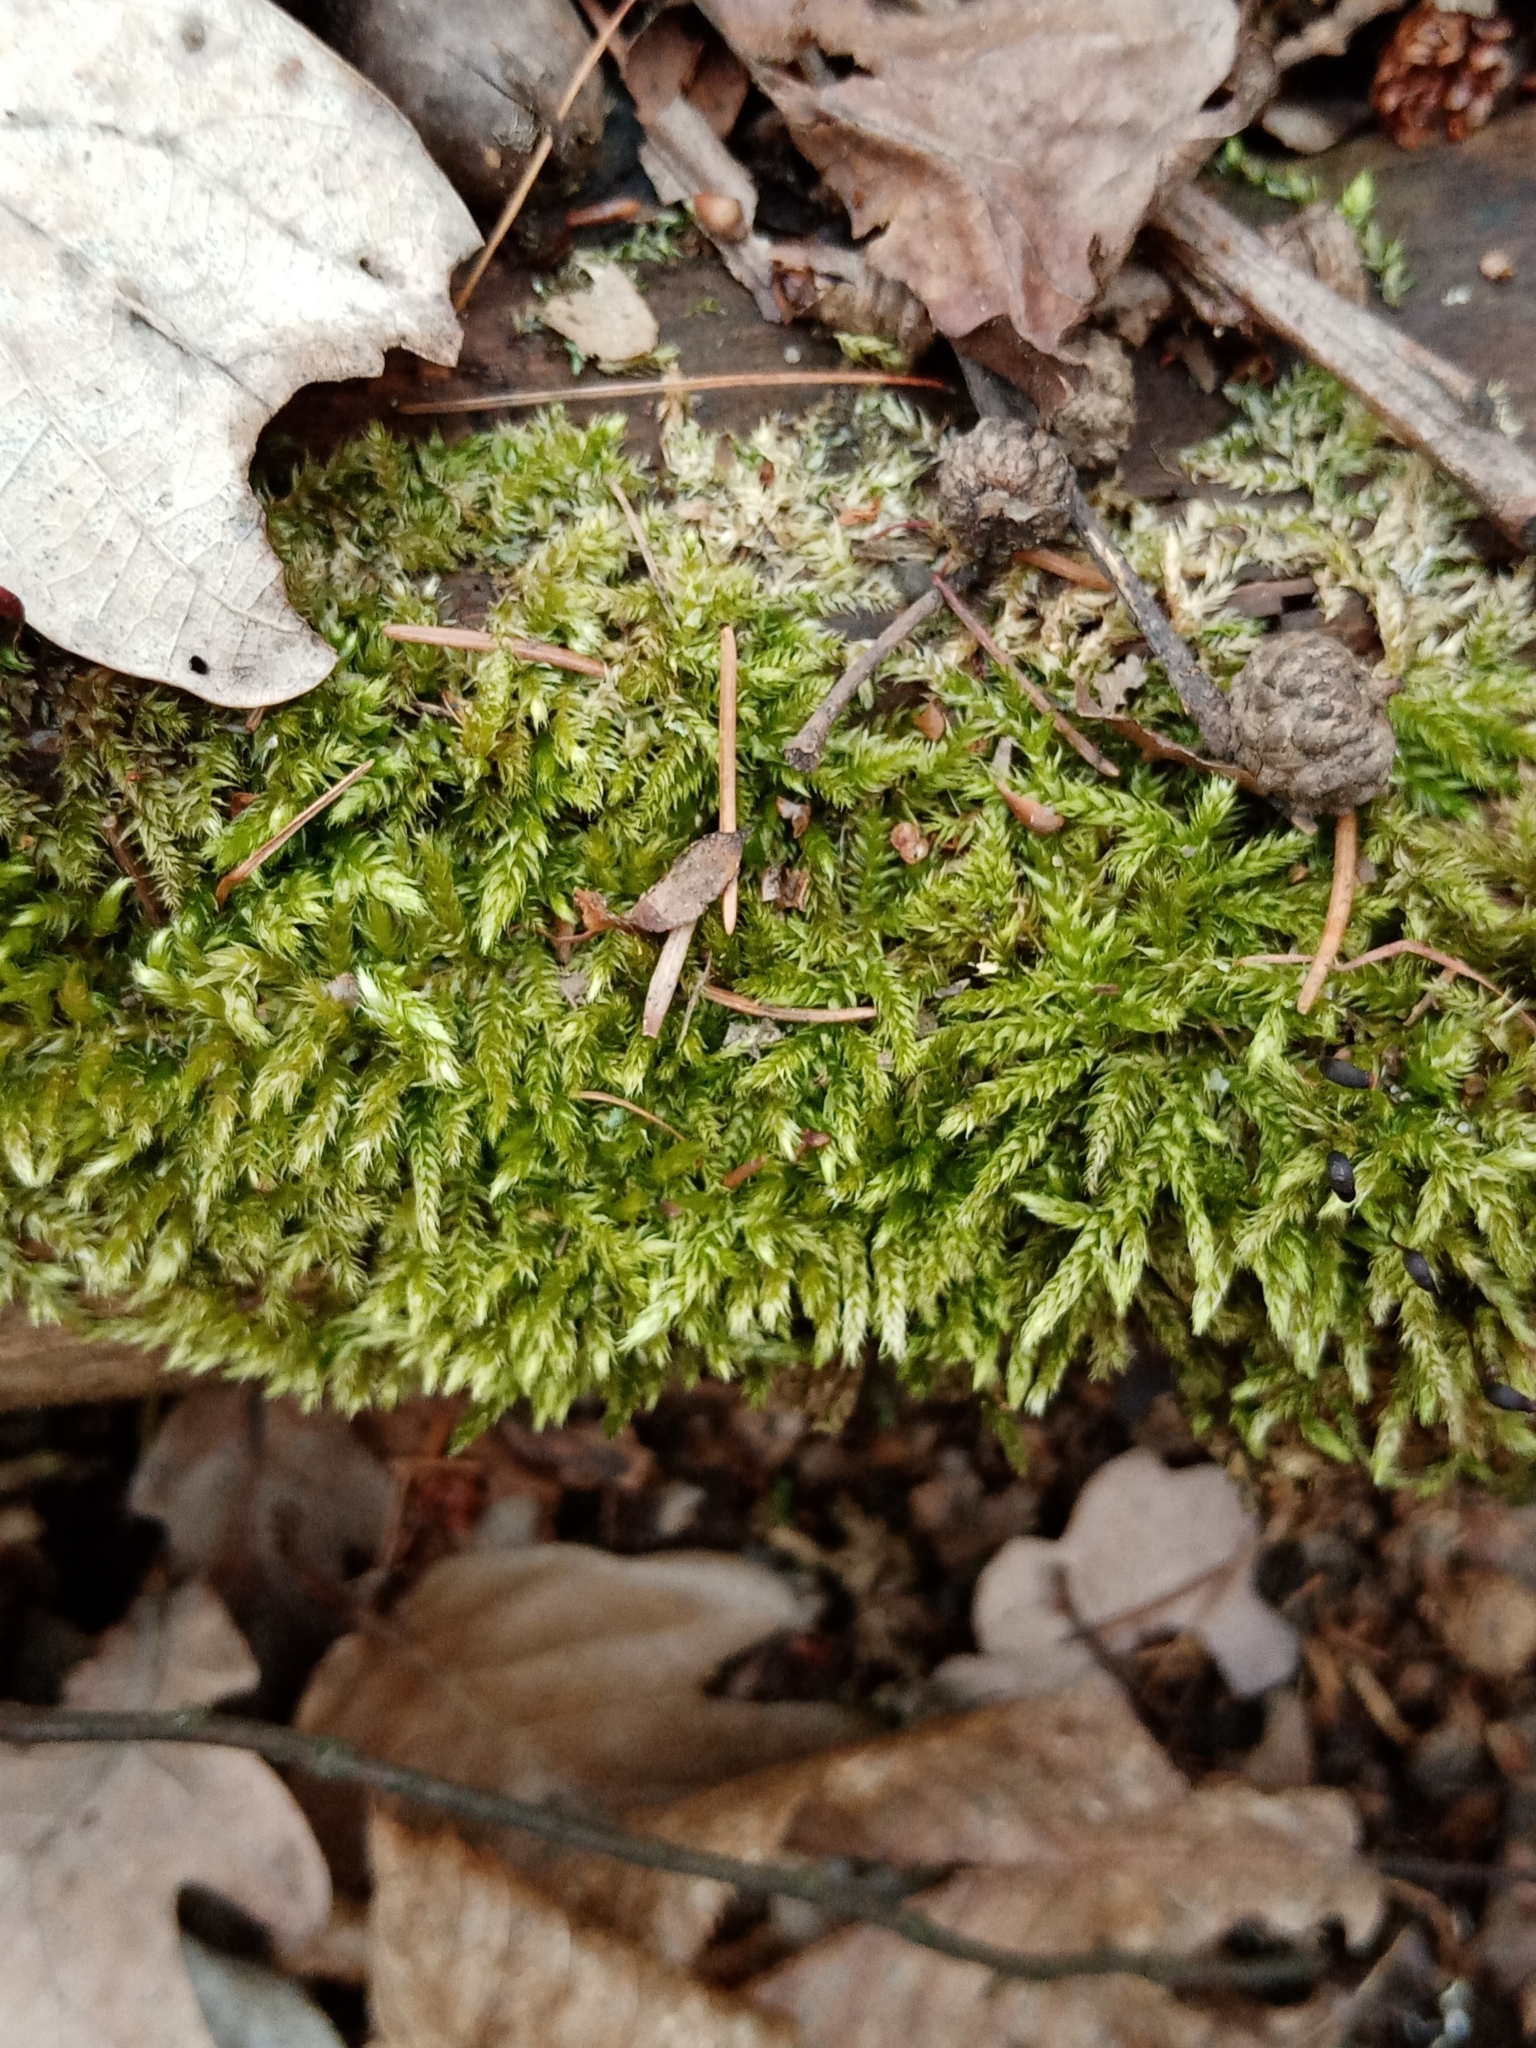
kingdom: Plantae
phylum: Bryophyta
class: Bryopsida
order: Hypnales
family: Hypnaceae
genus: Hypnum
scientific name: Hypnum cupressiforme
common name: Cypress-leaved plait-moss
